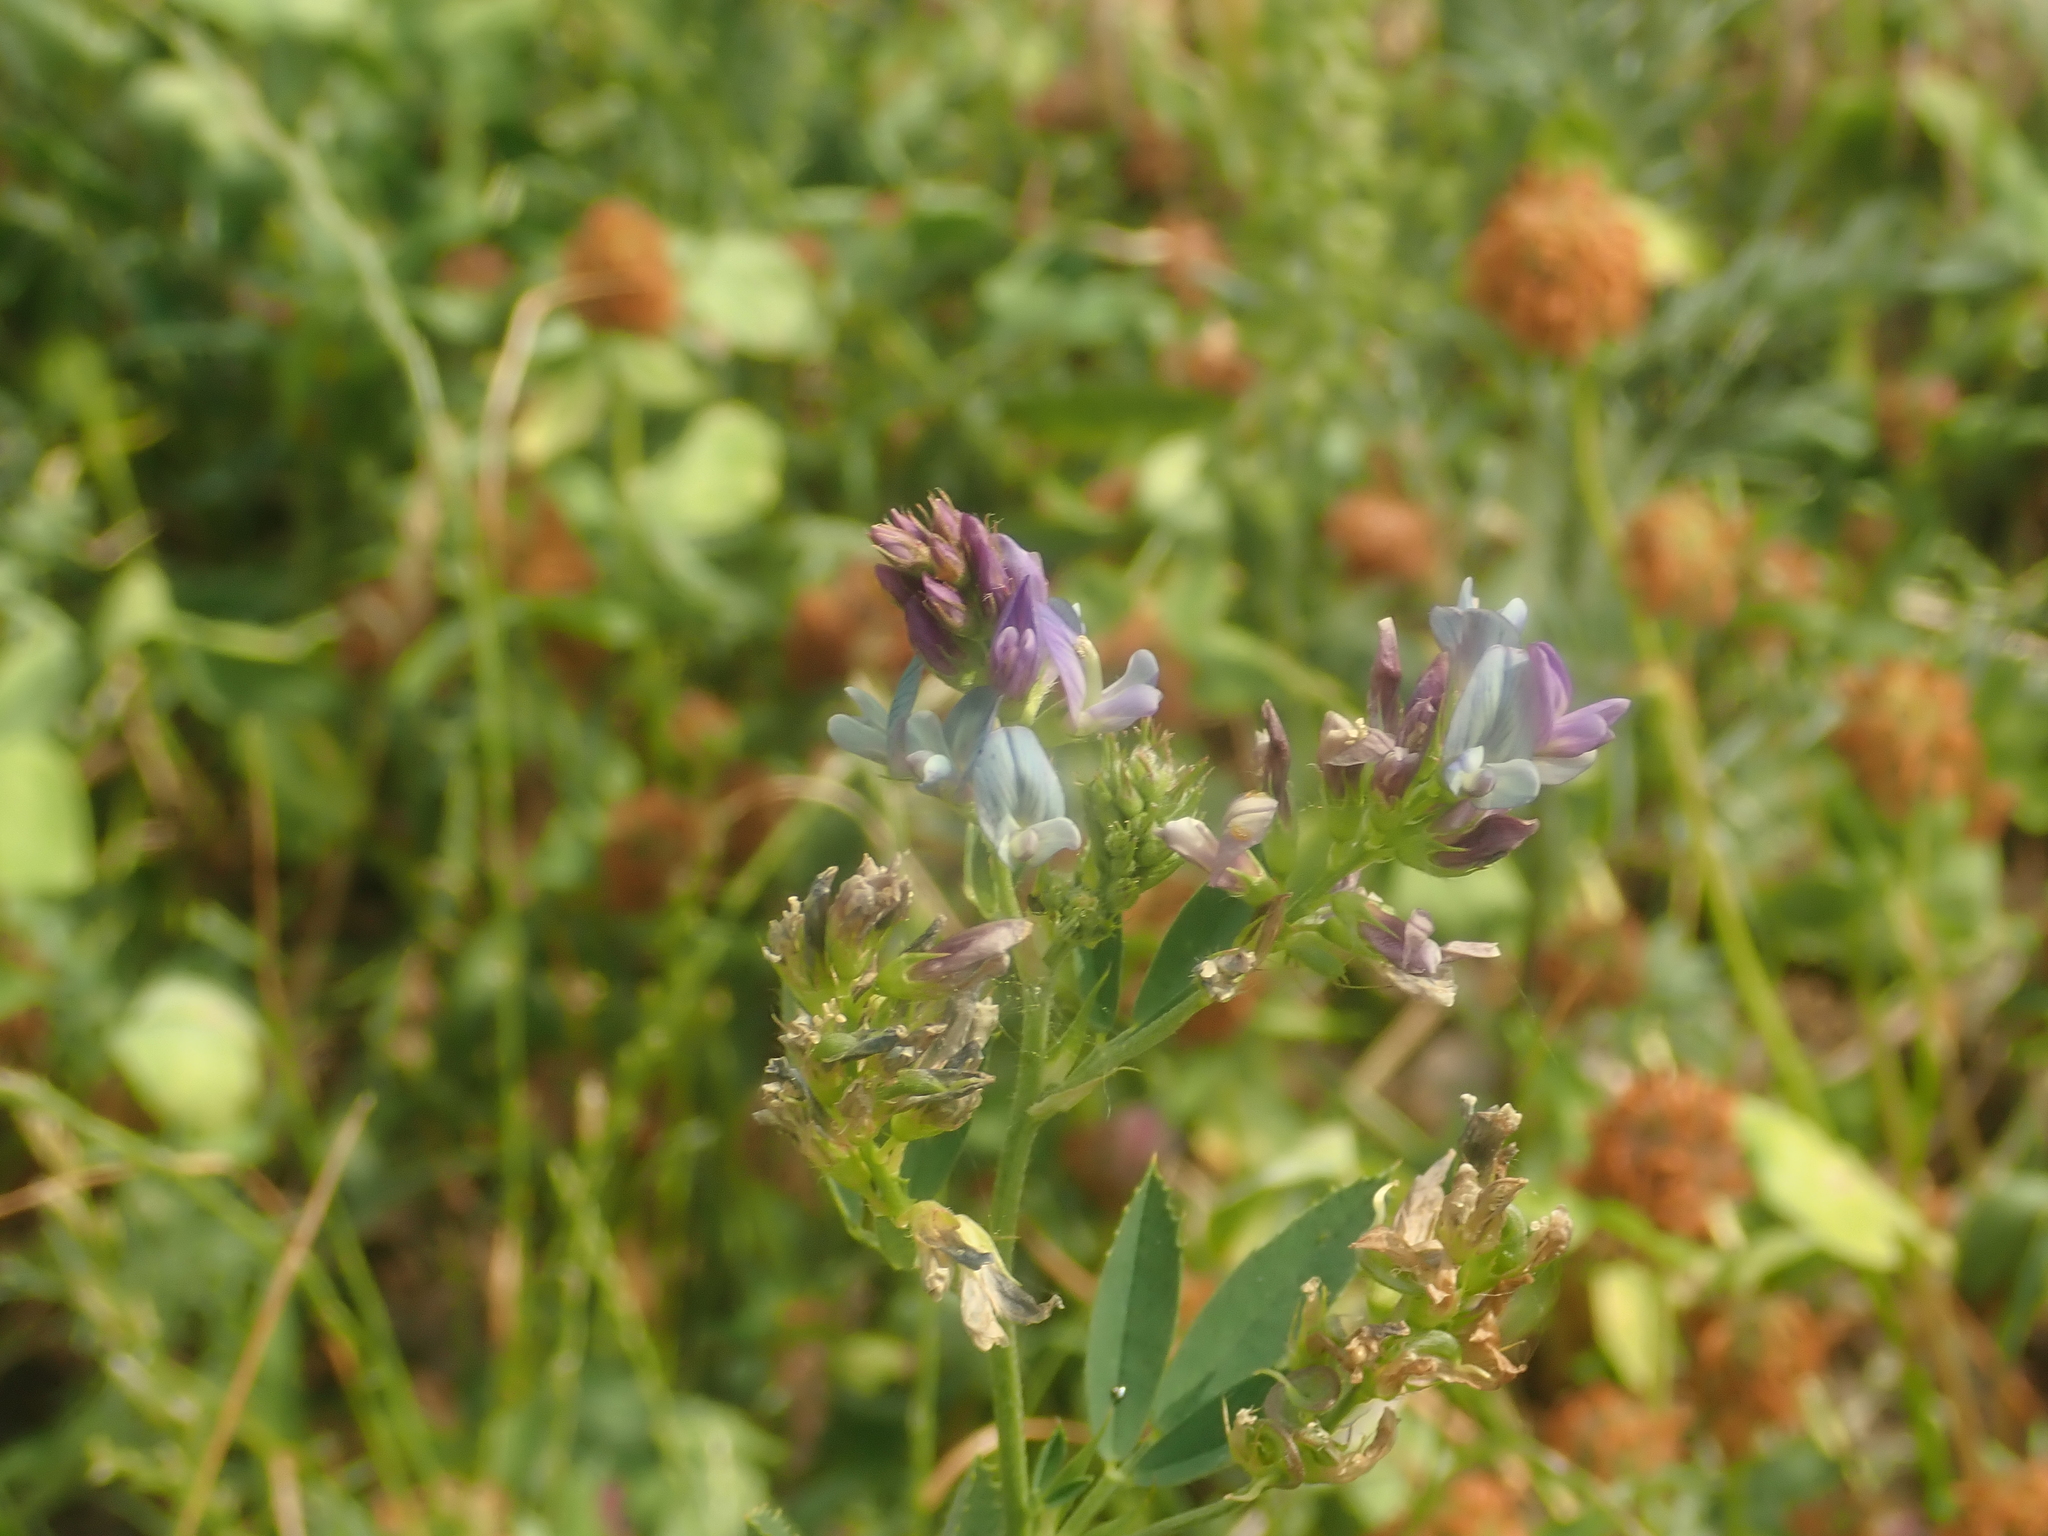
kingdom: Plantae
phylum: Tracheophyta
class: Magnoliopsida
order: Fabales
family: Fabaceae
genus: Medicago
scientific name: Medicago varia
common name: Sand lucerne
